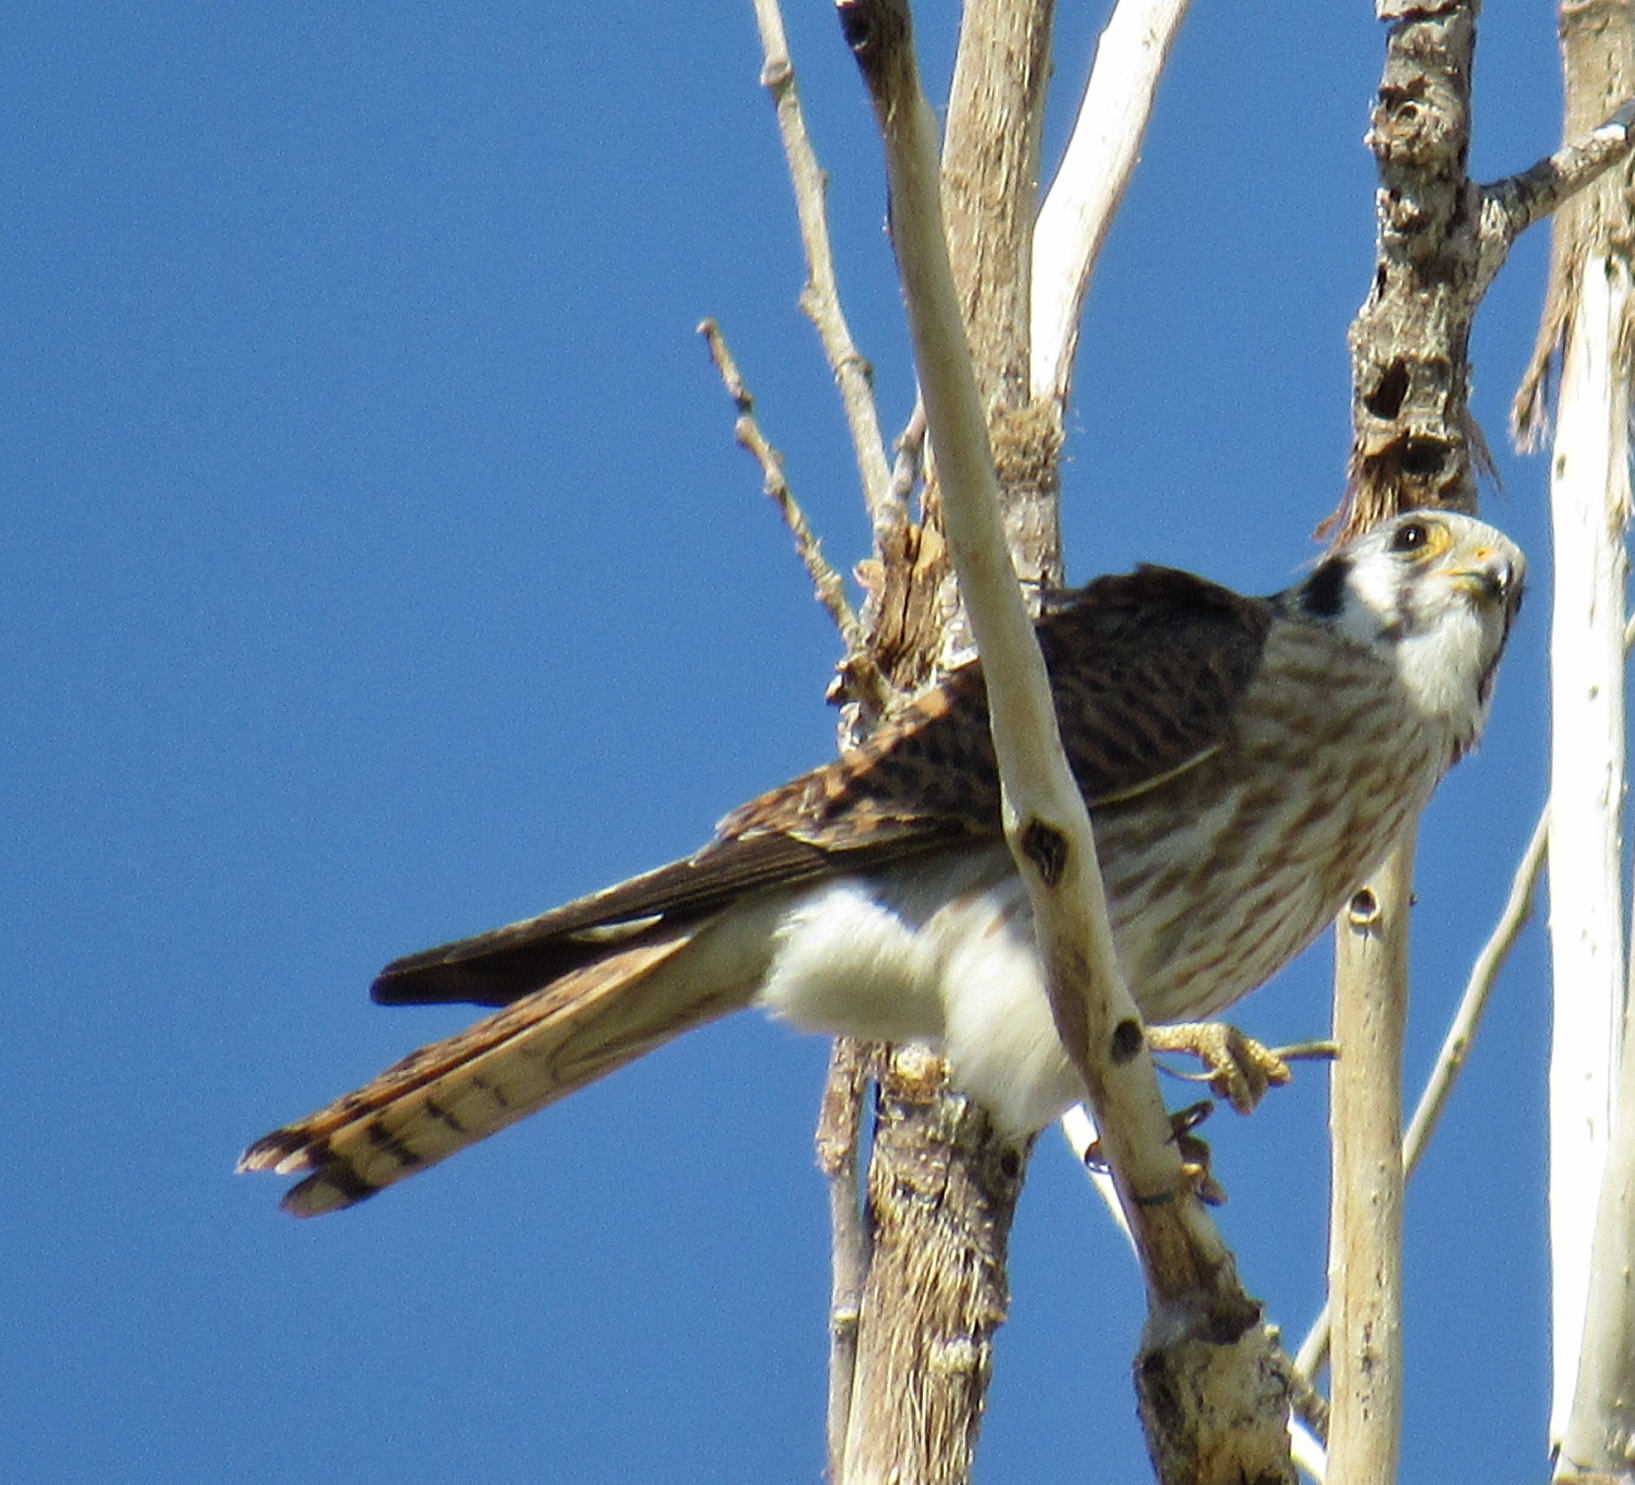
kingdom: Animalia
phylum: Chordata
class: Aves
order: Falconiformes
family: Falconidae
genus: Falco
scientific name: Falco sparverius
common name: American kestrel
